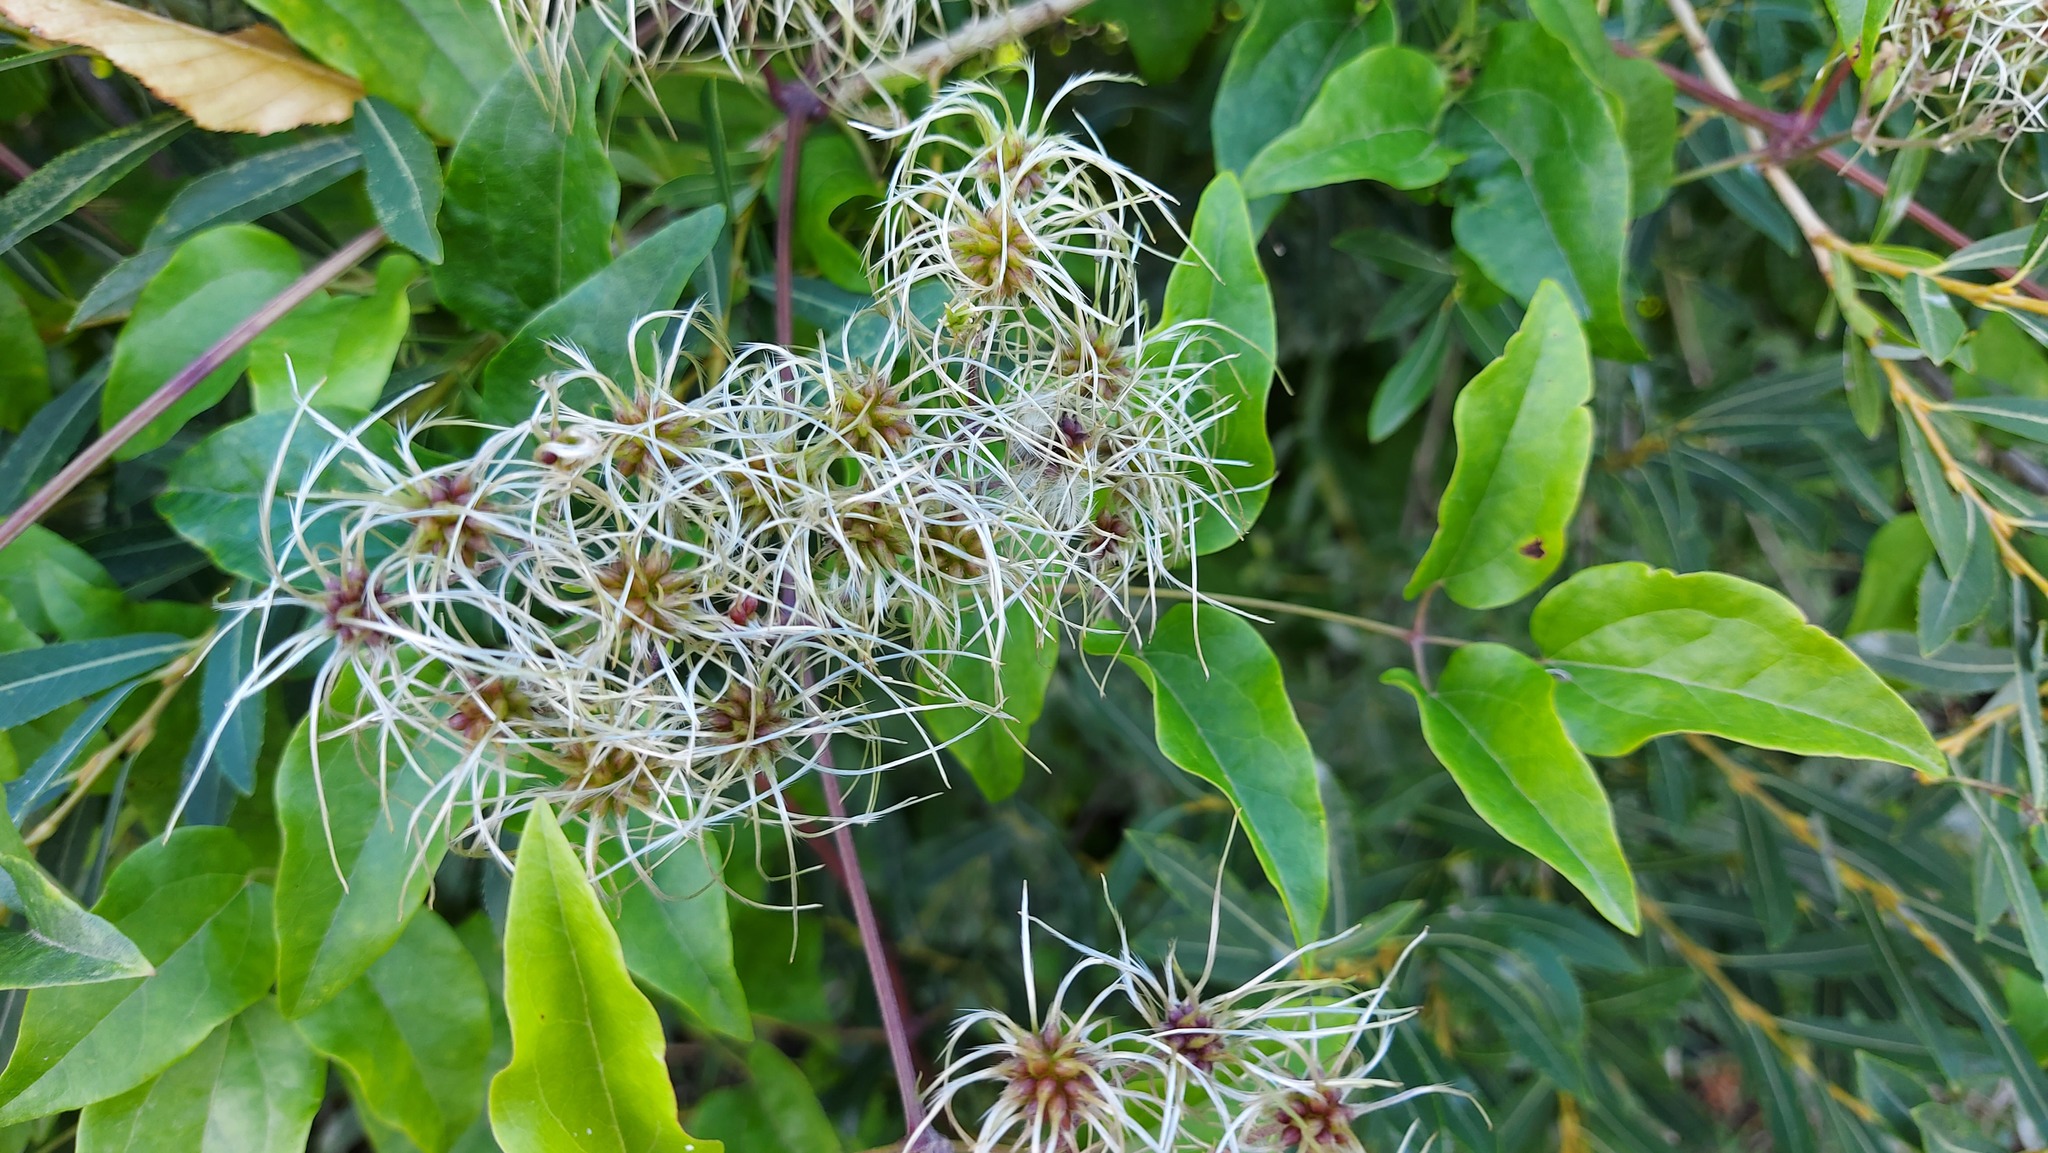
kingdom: Plantae
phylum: Tracheophyta
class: Magnoliopsida
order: Ranunculales
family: Ranunculaceae
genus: Clematis
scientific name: Clematis vitalba
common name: Evergreen clematis
